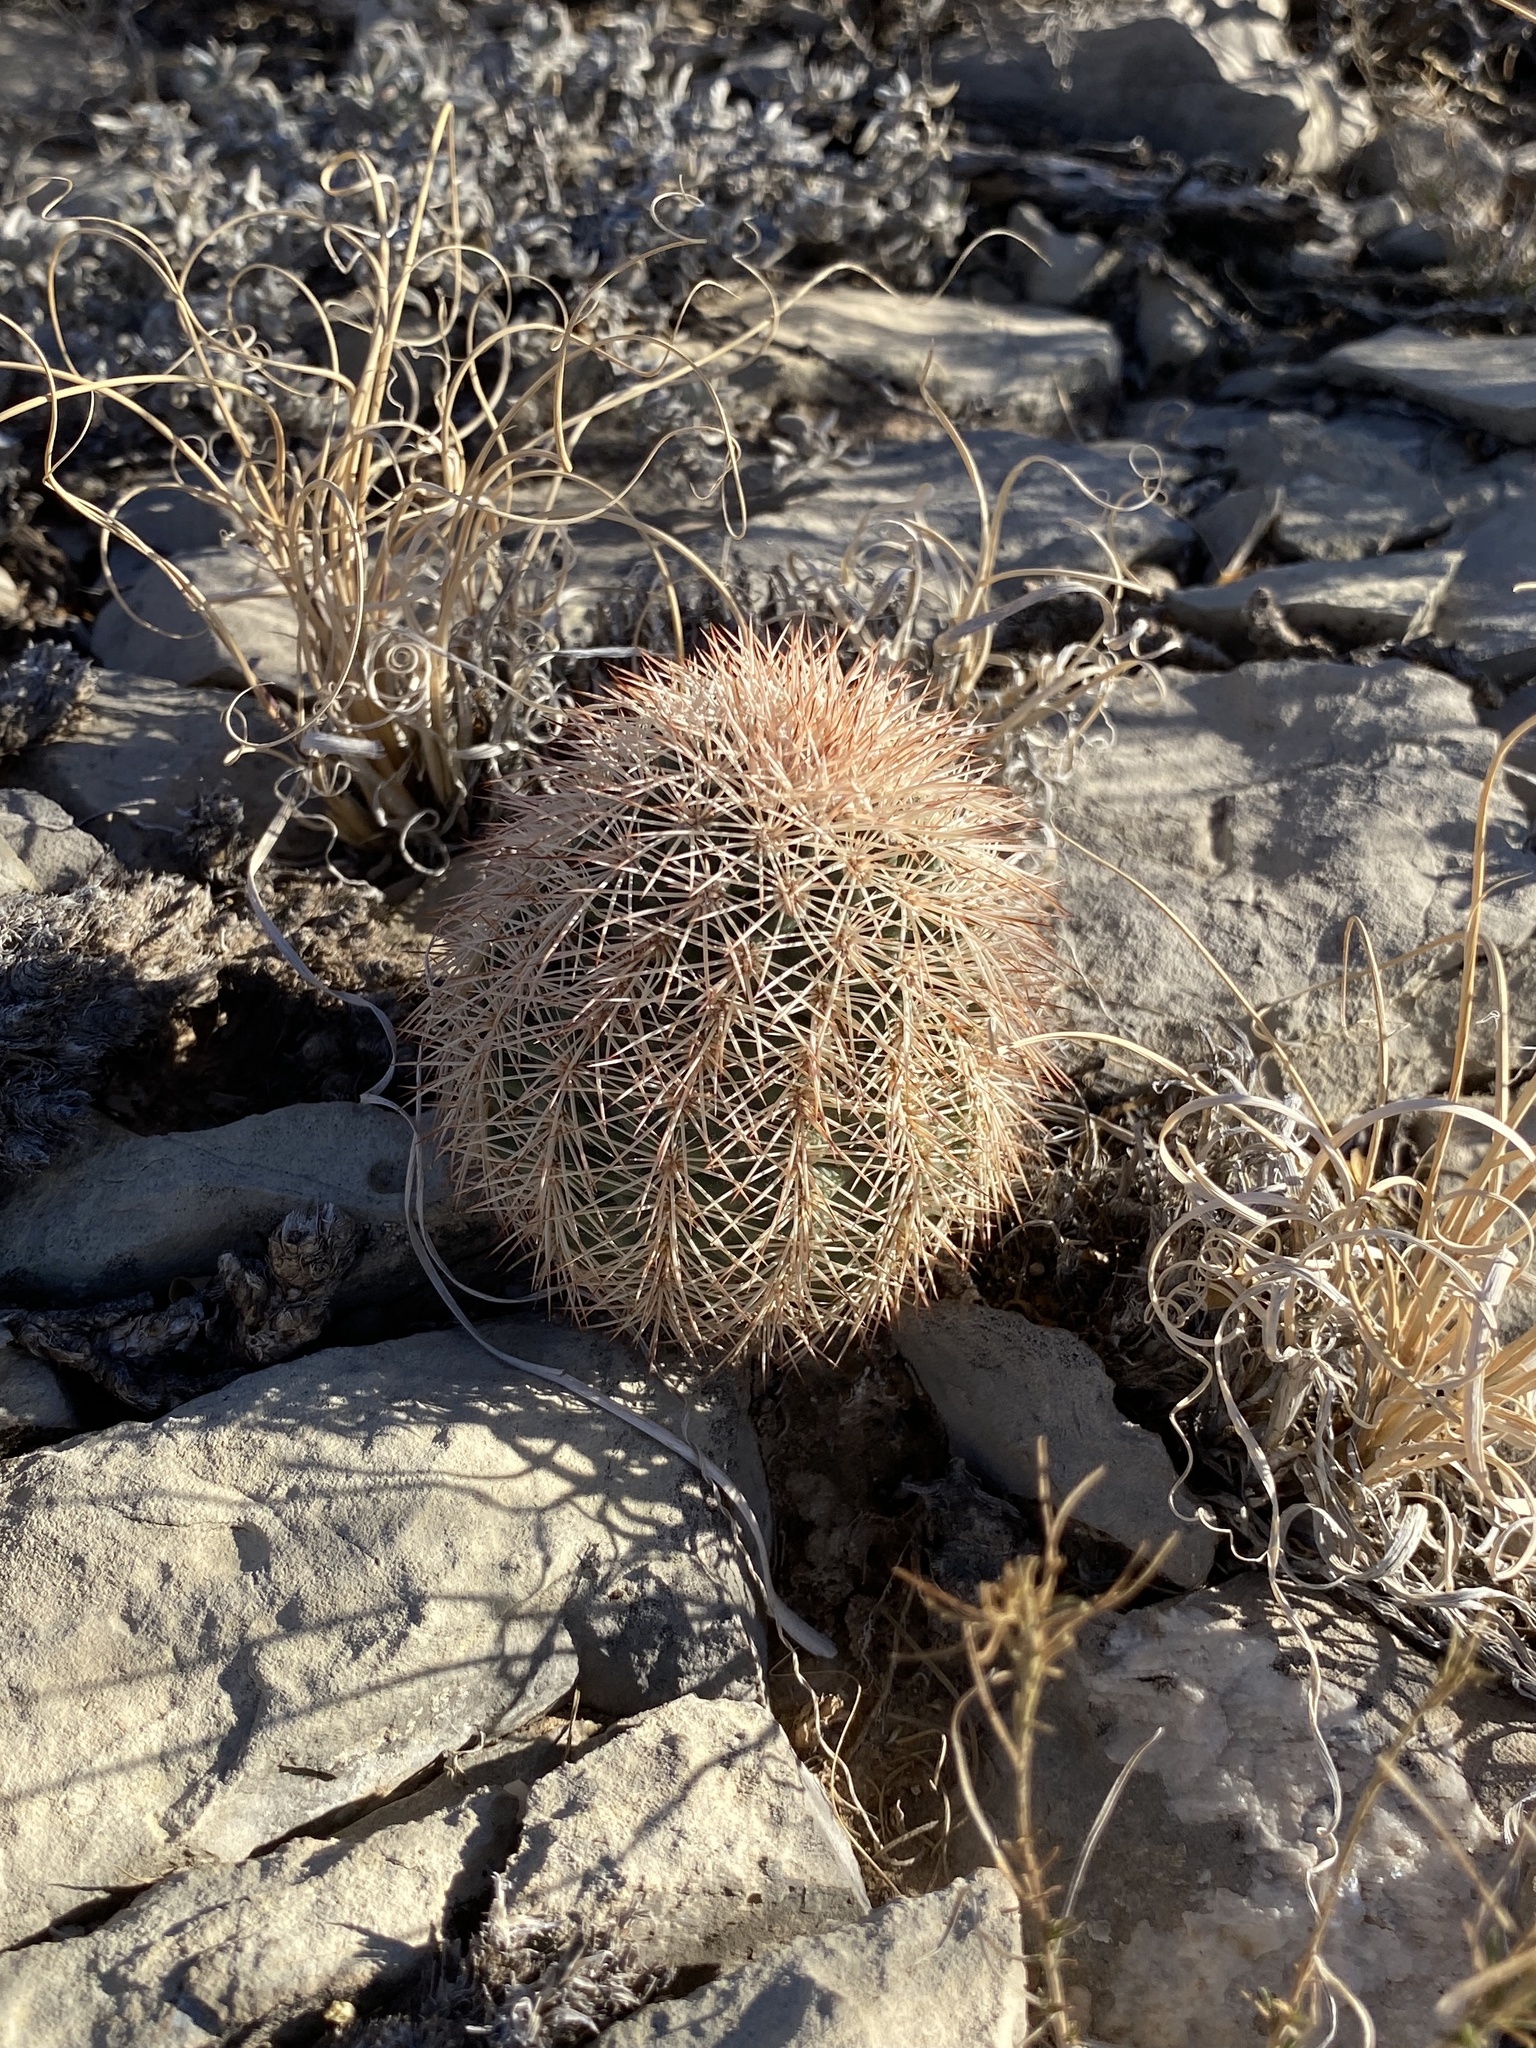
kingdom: Plantae
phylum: Tracheophyta
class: Magnoliopsida
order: Caryophyllales
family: Cactaceae
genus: Echinocereus
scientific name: Echinocereus dasyacanthus
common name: Spiny hedgehog cactus
